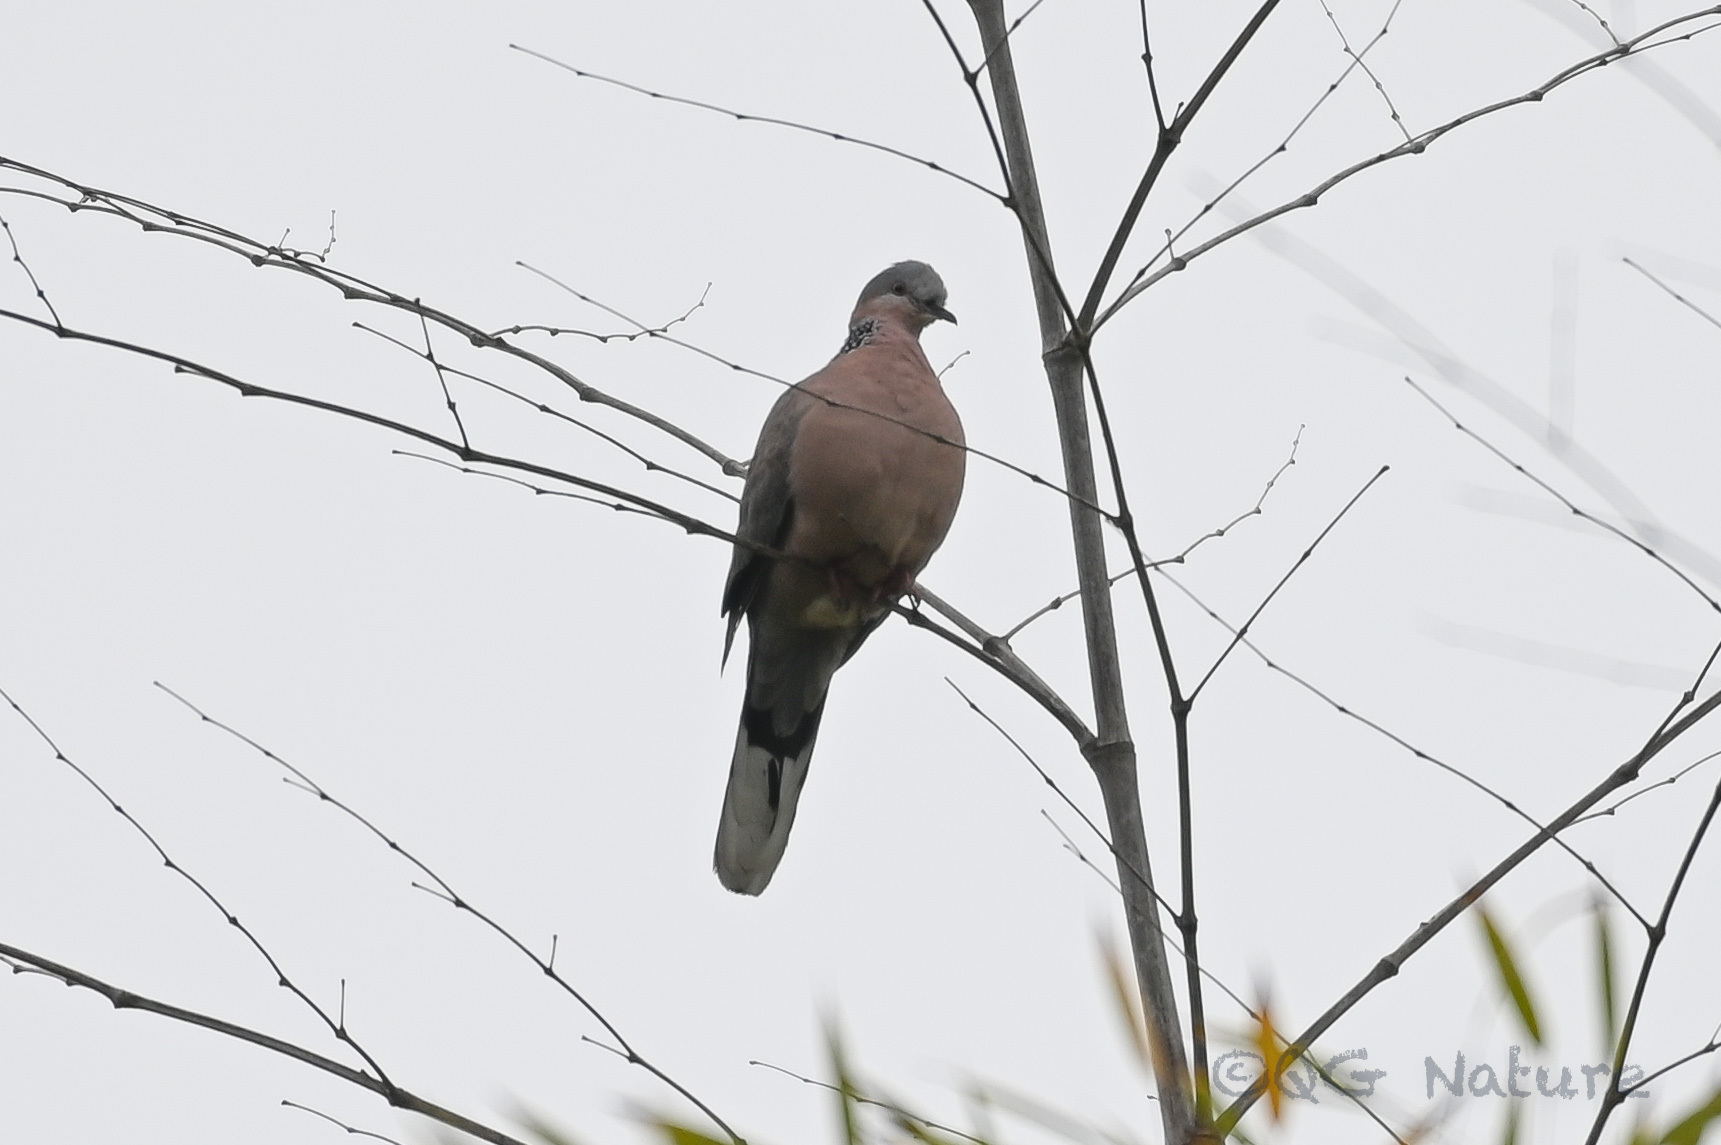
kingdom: Animalia
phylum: Chordata
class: Aves
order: Columbiformes
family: Columbidae
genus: Spilopelia
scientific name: Spilopelia chinensis
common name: Spotted dove
